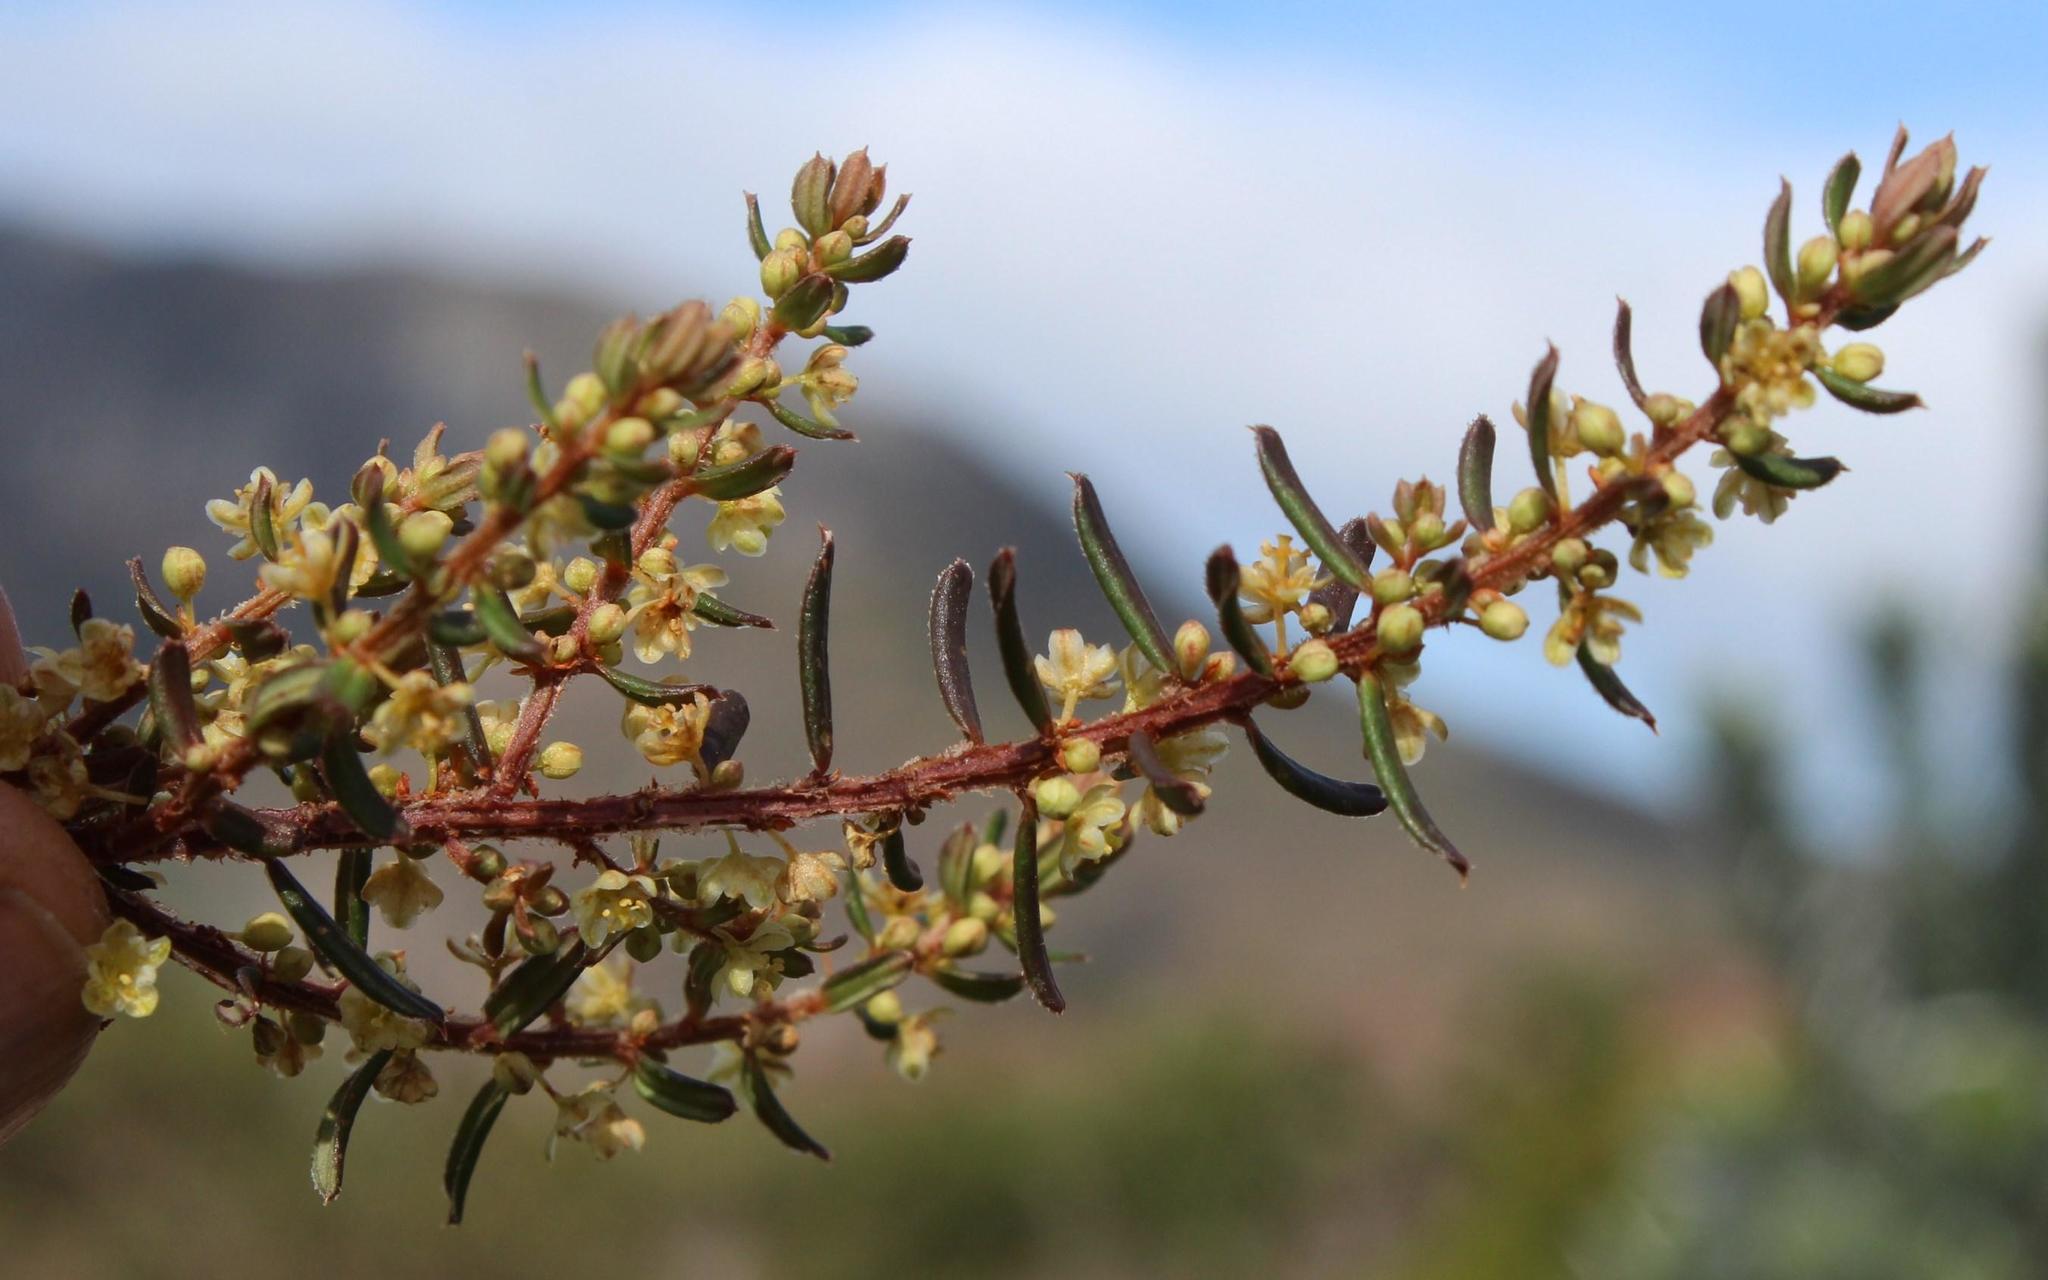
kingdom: Plantae
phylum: Tracheophyta
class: Magnoliopsida
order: Malpighiales
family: Peraceae
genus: Clutia
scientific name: Clutia alaternoides
